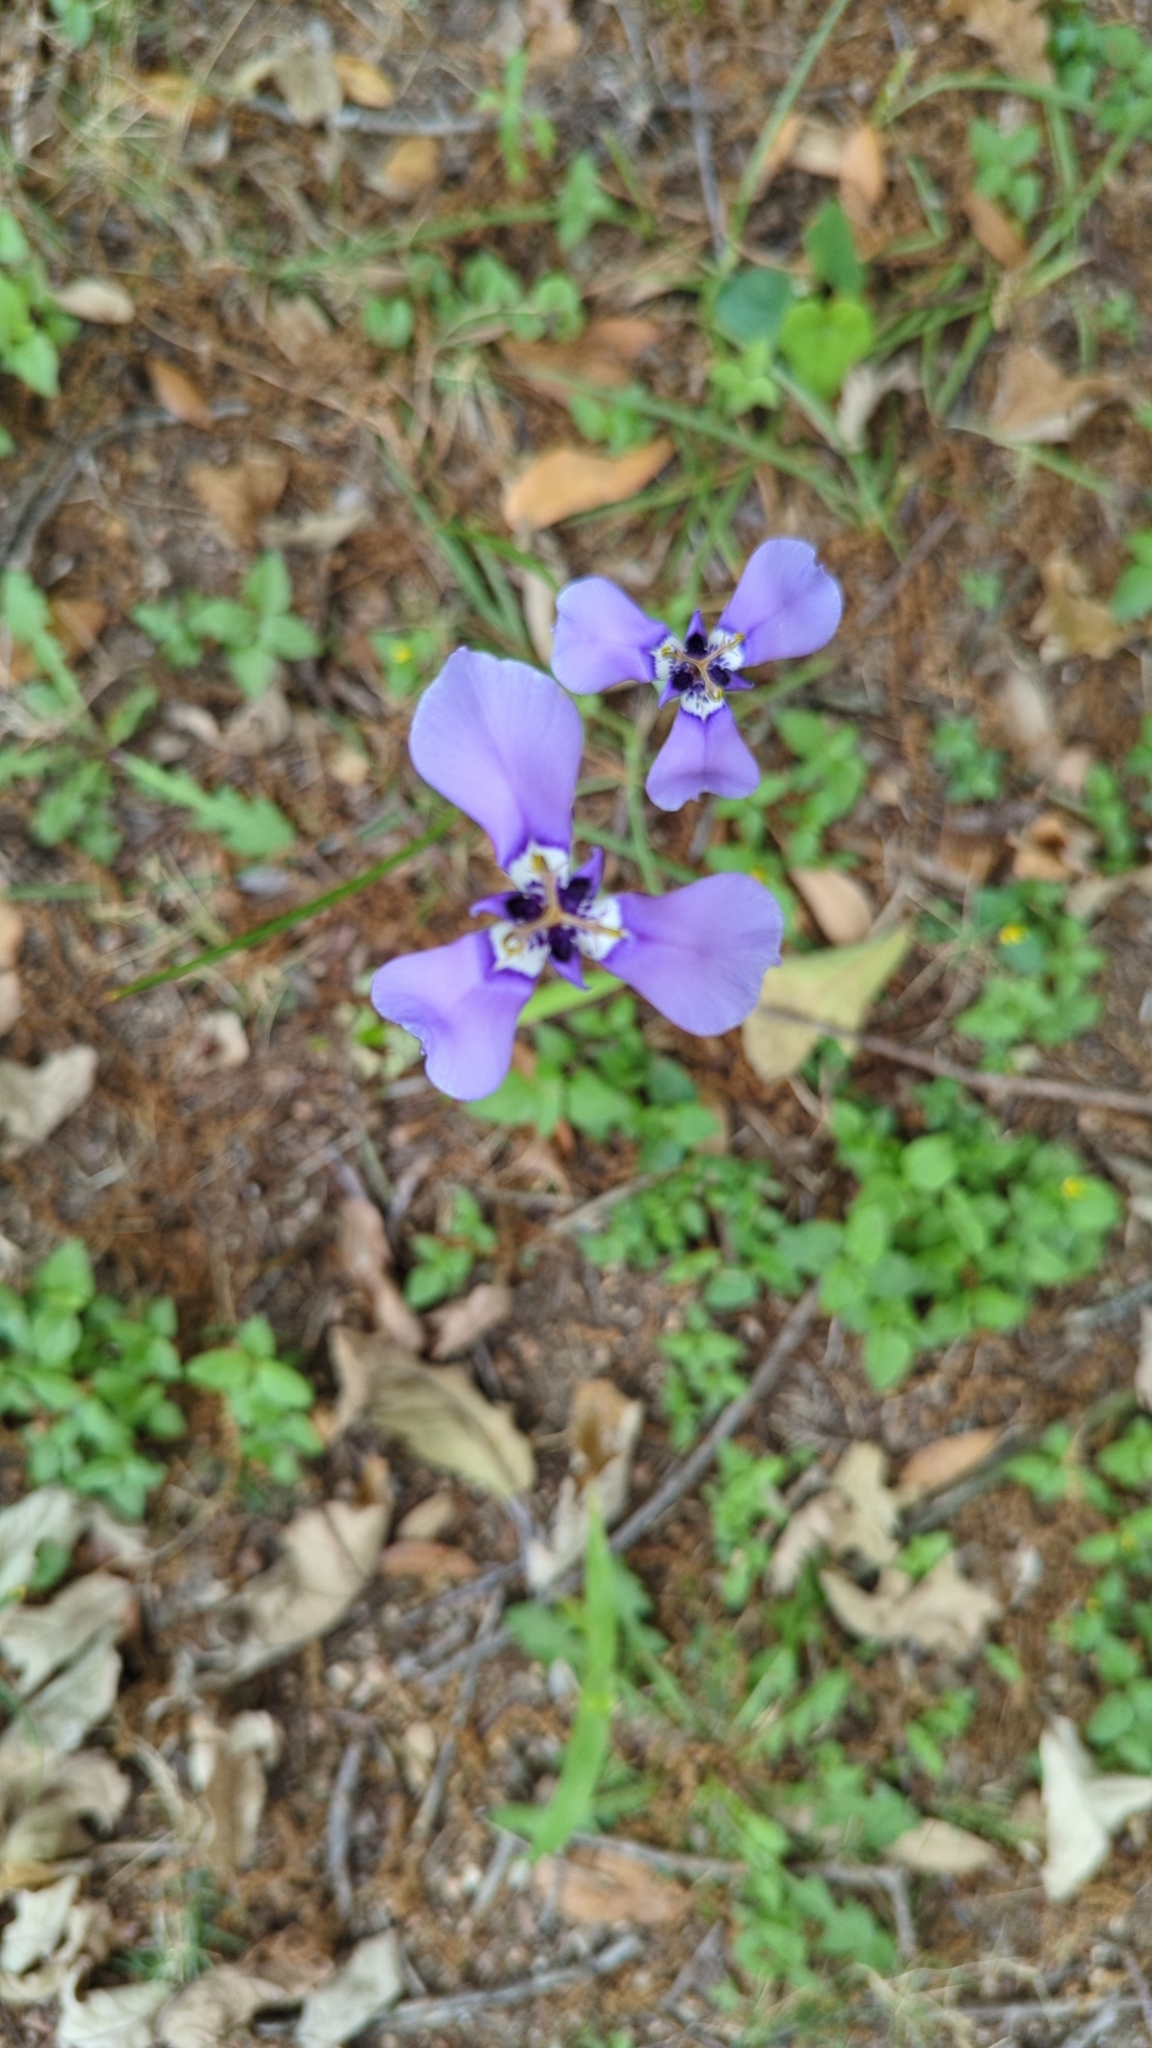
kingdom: Plantae
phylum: Tracheophyta
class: Liliopsida
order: Asparagales
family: Iridaceae
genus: Herbertia
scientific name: Herbertia lahue
